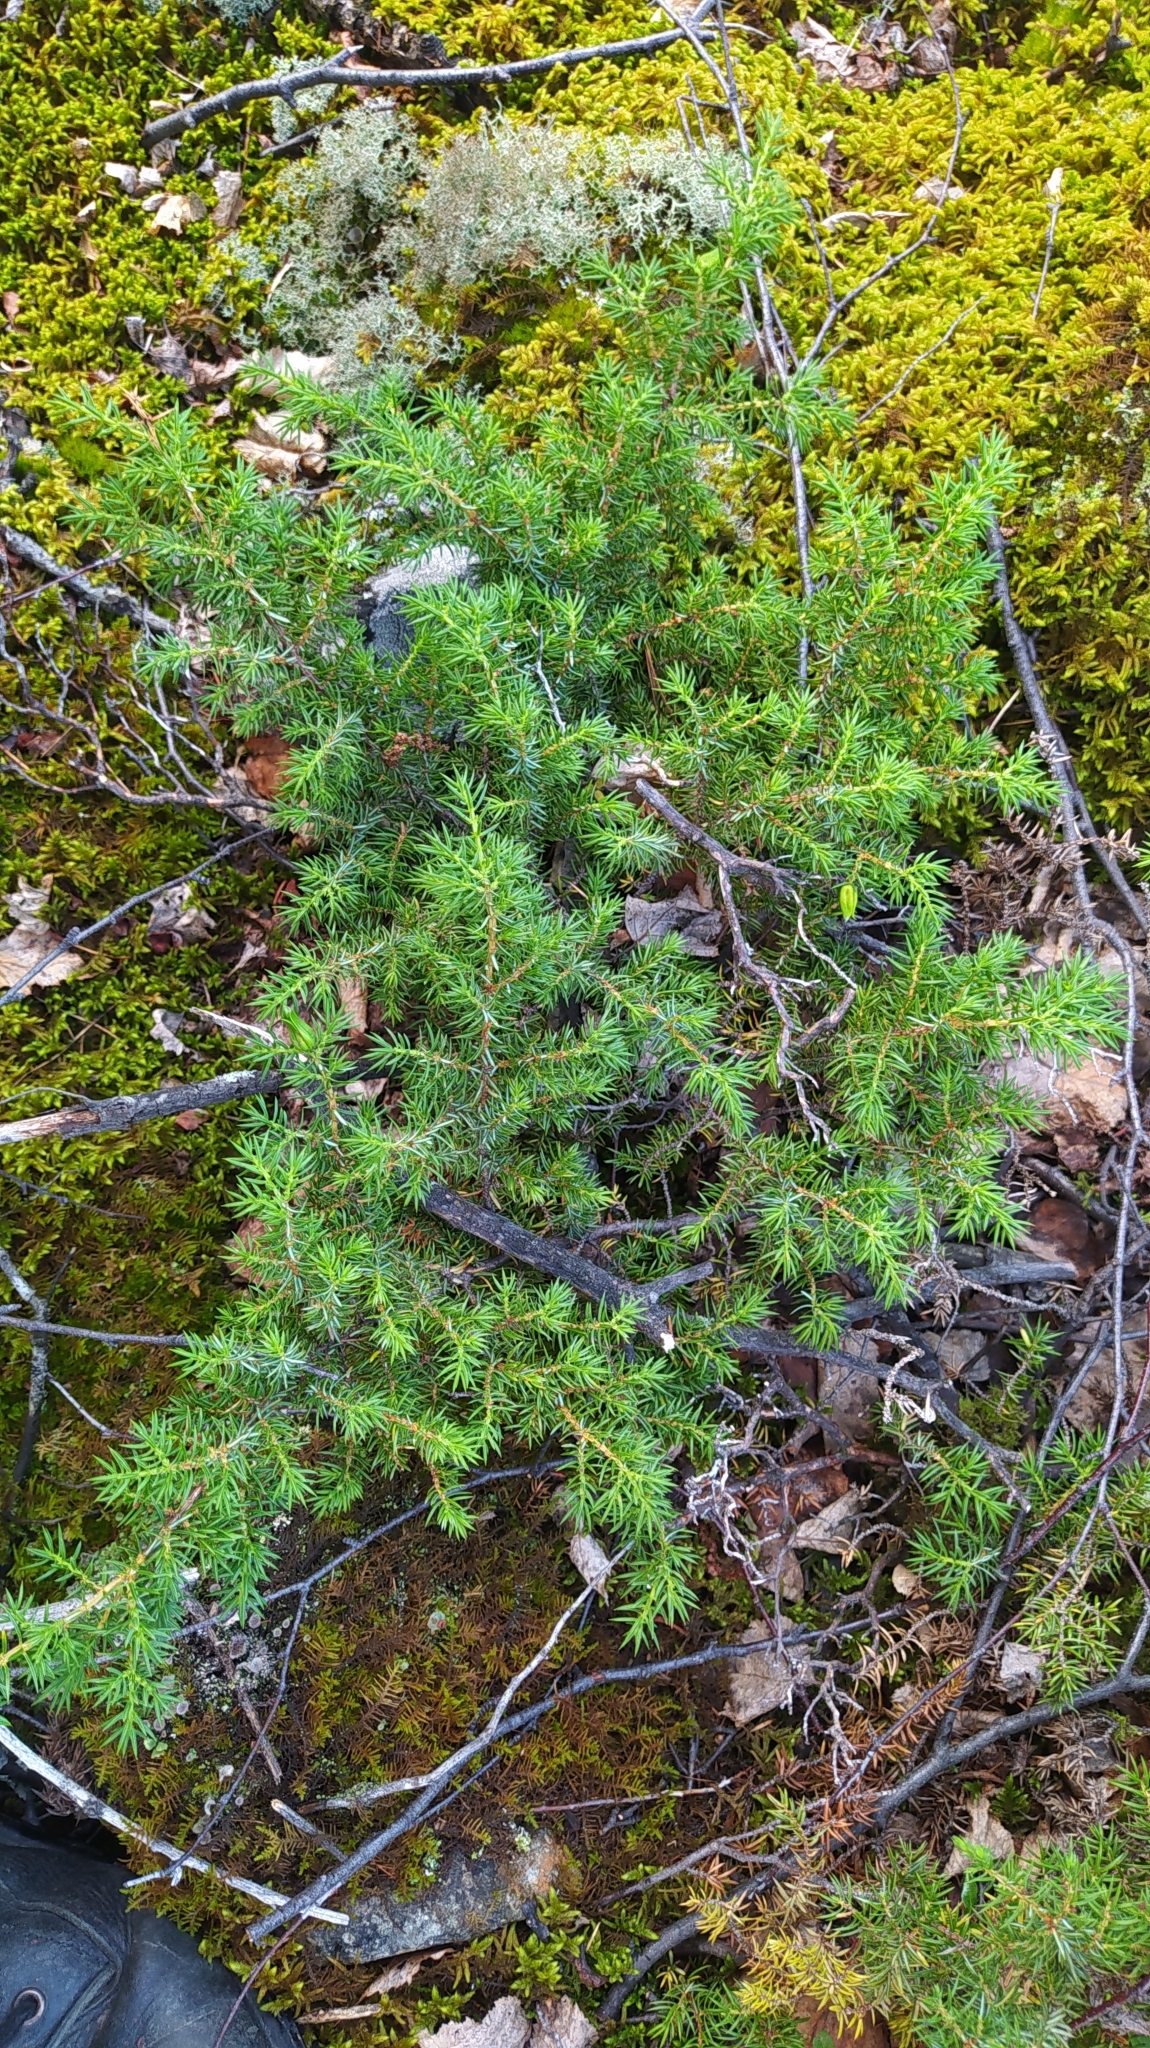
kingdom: Plantae
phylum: Tracheophyta
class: Pinopsida
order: Pinales
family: Cupressaceae
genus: Juniperus
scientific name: Juniperus communis
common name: Common juniper
